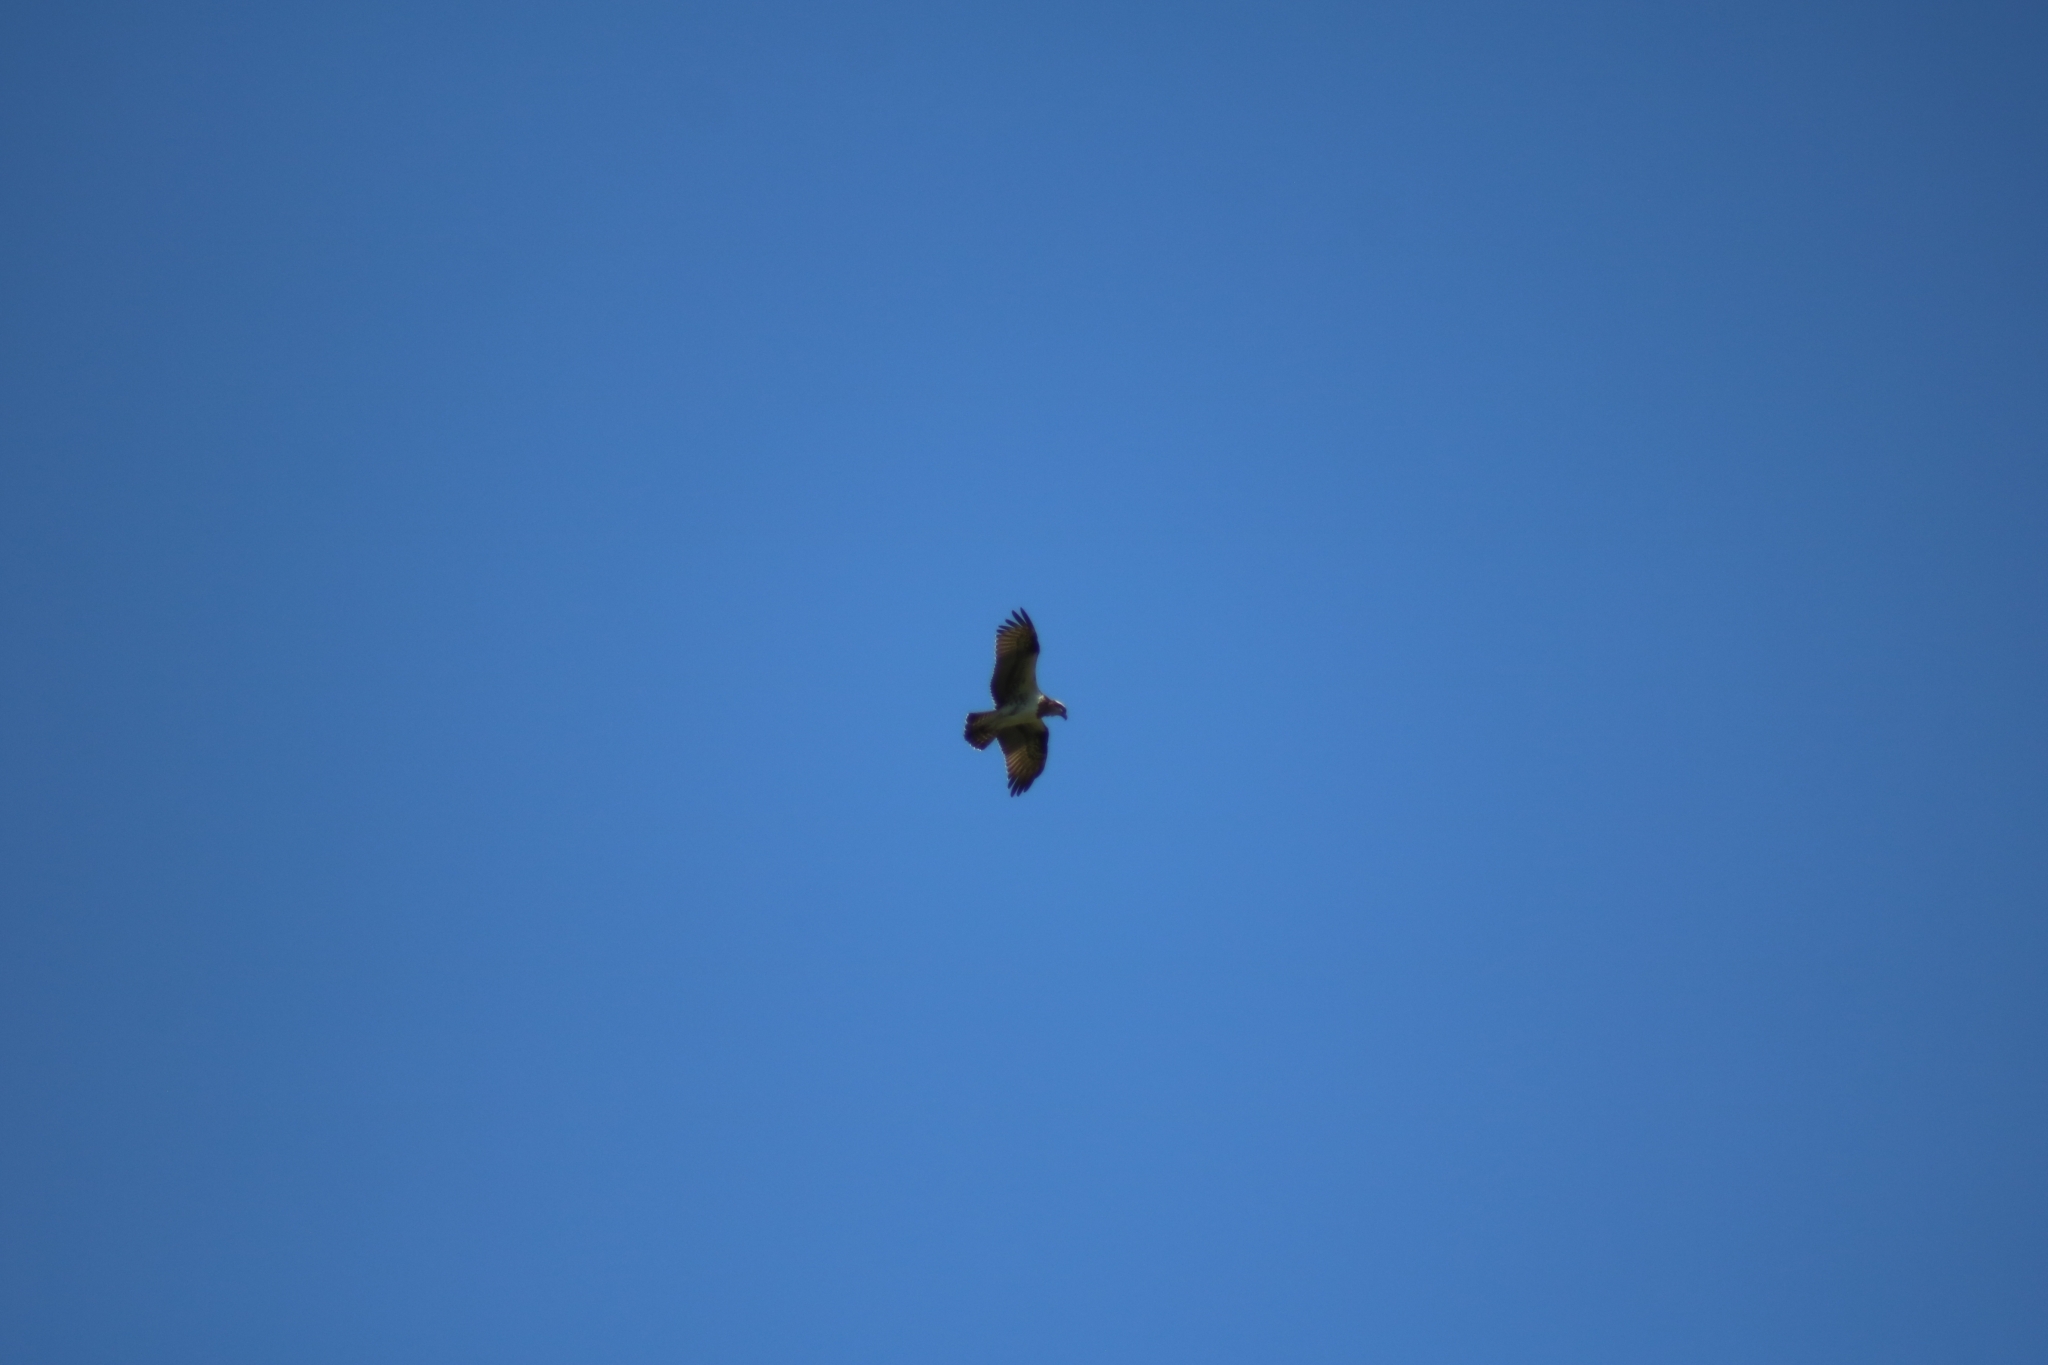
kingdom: Animalia
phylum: Chordata
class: Aves
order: Accipitriformes
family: Pandionidae
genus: Pandion
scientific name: Pandion cristatus
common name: Eastern osprey
